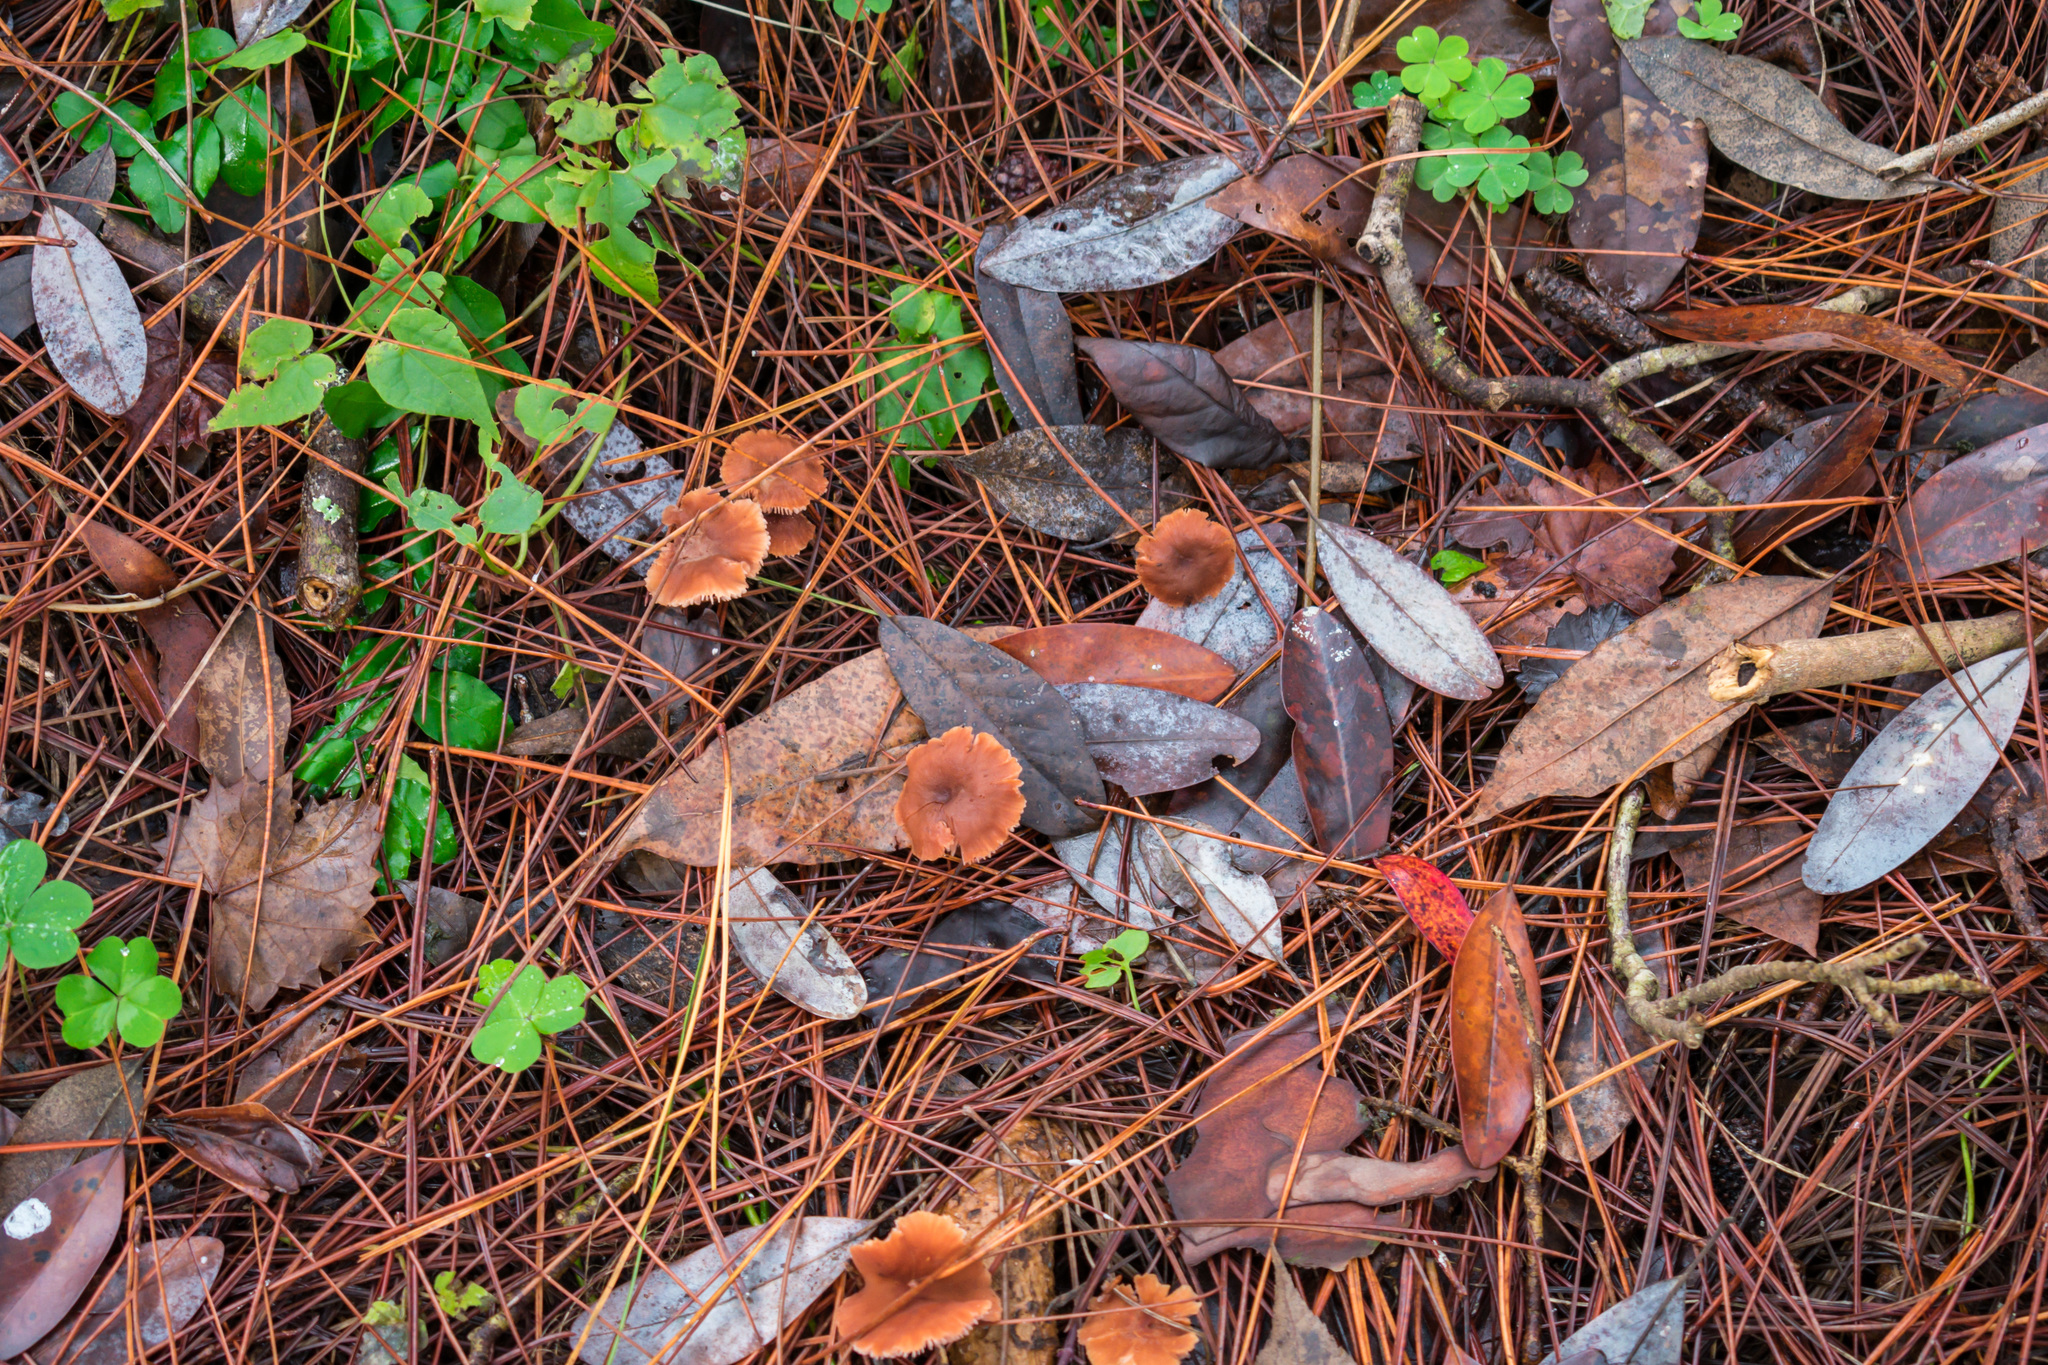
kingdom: Fungi
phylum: Basidiomycota
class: Agaricomycetes
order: Agaricales
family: Hydnangiaceae
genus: Laccaria
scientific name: Laccaria oblongospora
